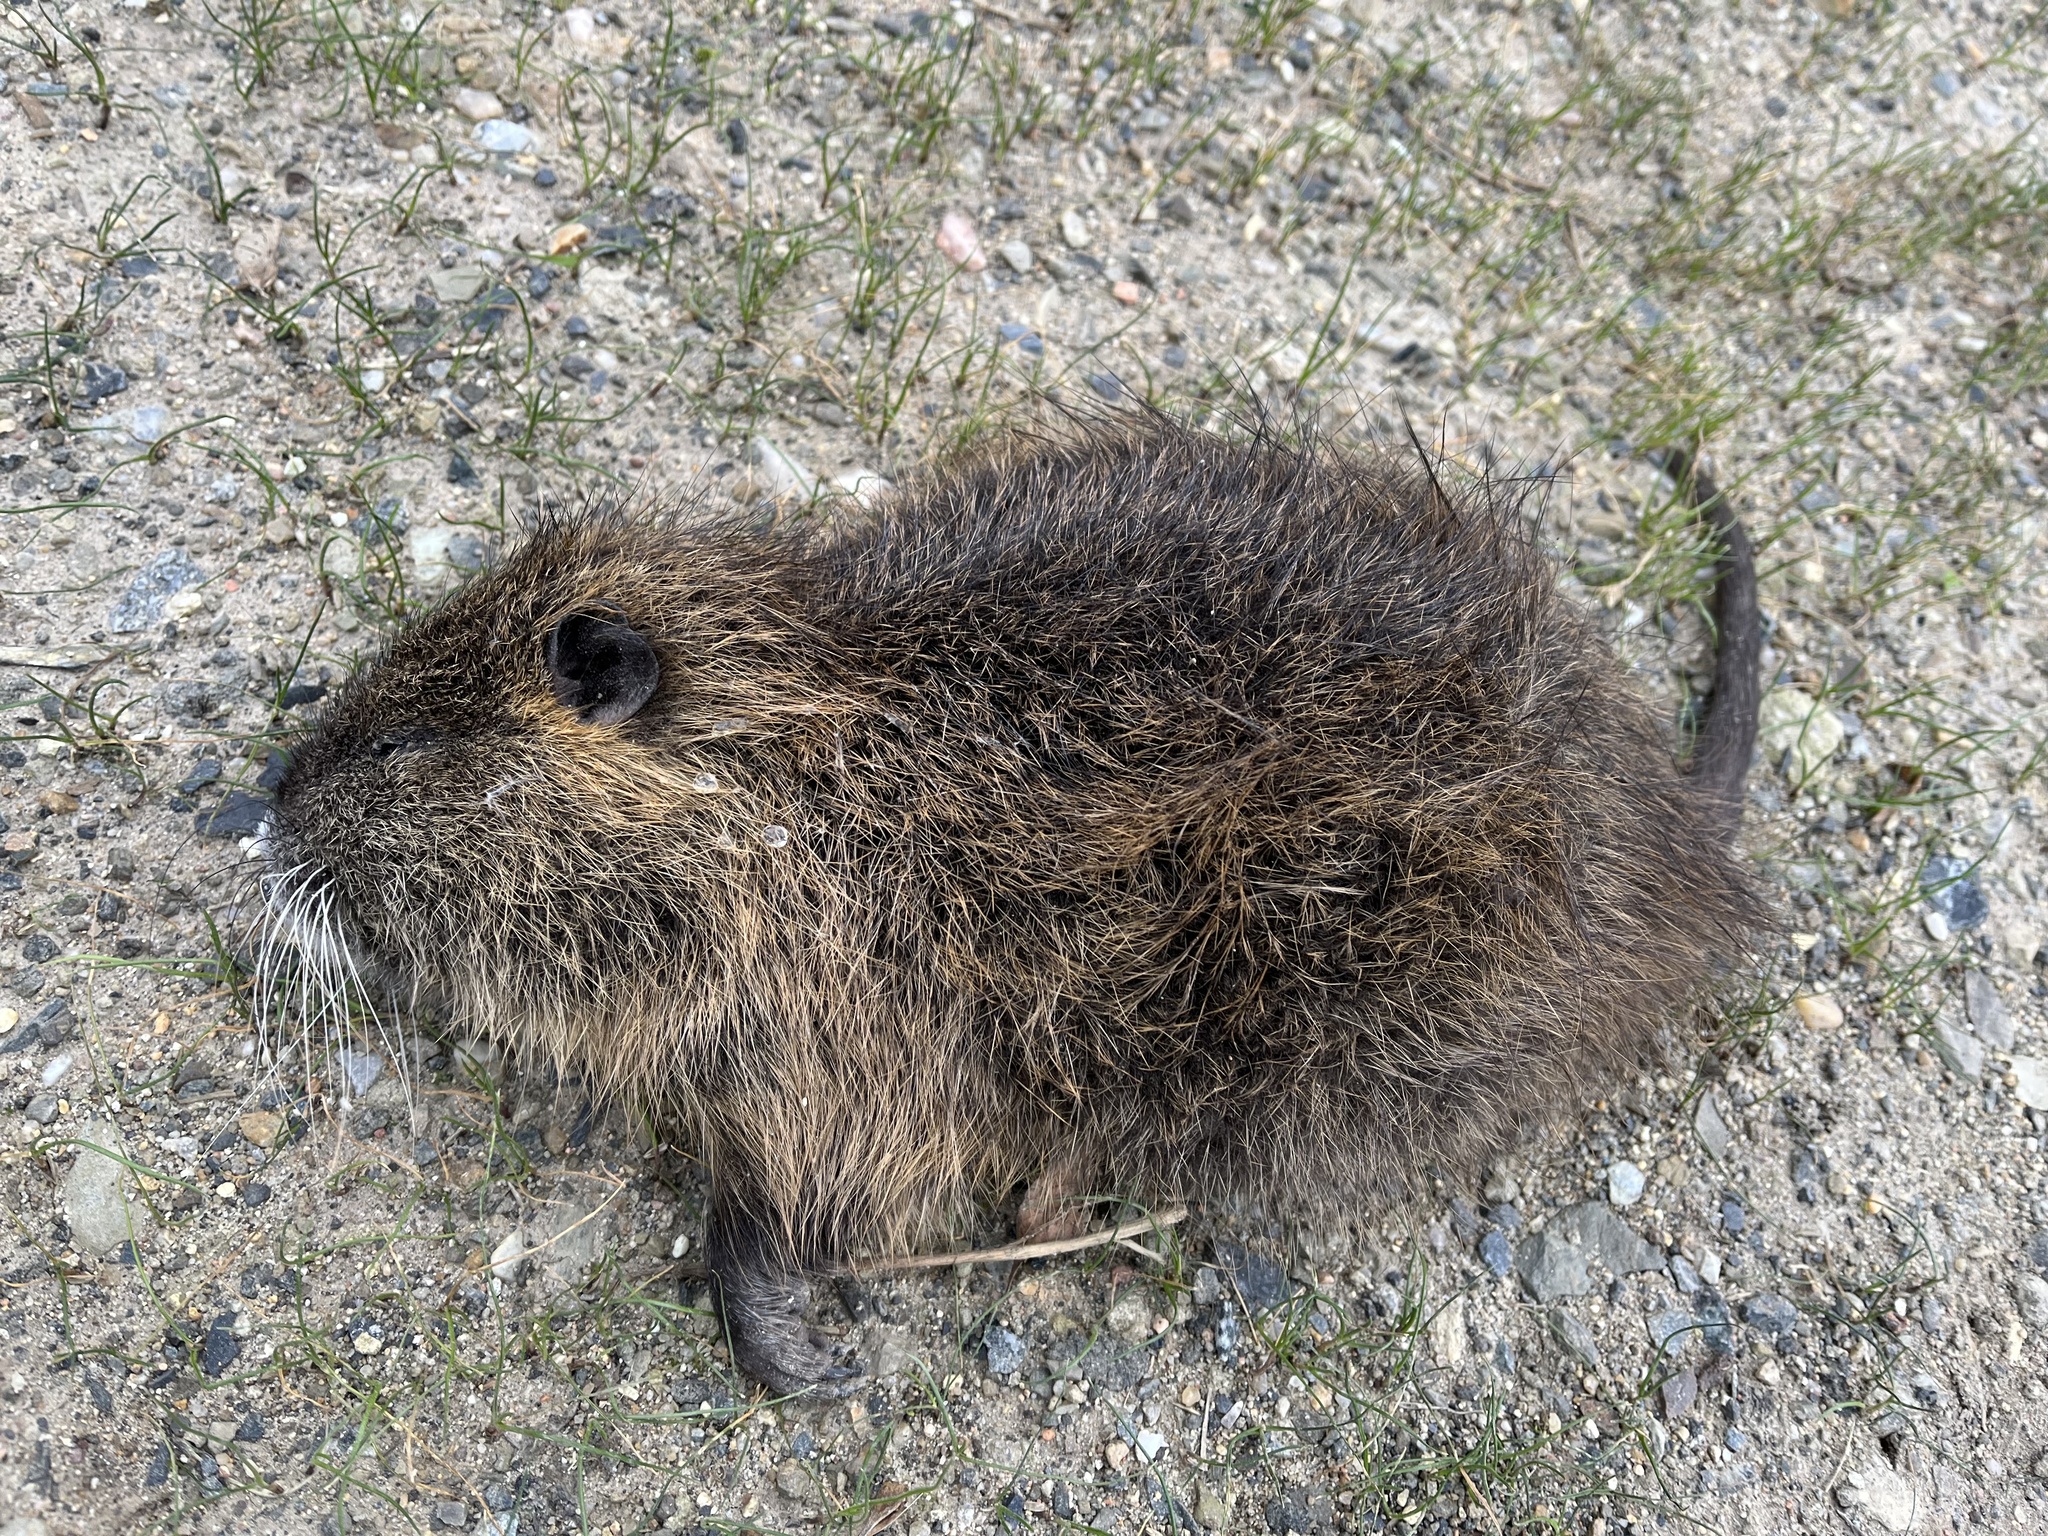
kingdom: Animalia
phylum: Chordata
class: Mammalia
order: Rodentia
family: Myocastoridae
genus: Myocastor
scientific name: Myocastor coypus
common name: Coypu
